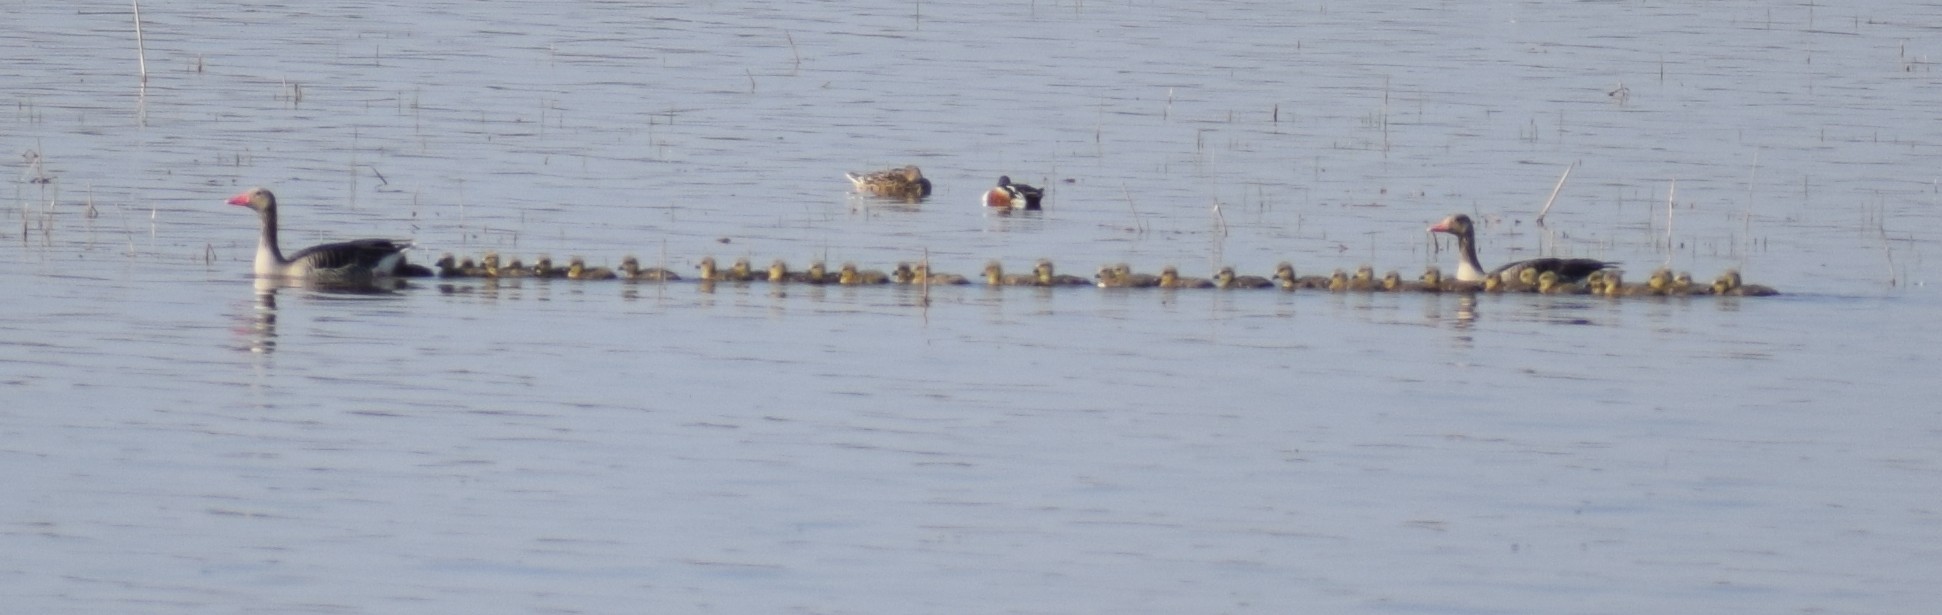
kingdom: Animalia
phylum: Chordata
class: Aves
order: Anseriformes
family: Anatidae
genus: Anser
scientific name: Anser anser
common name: Greylag goose
